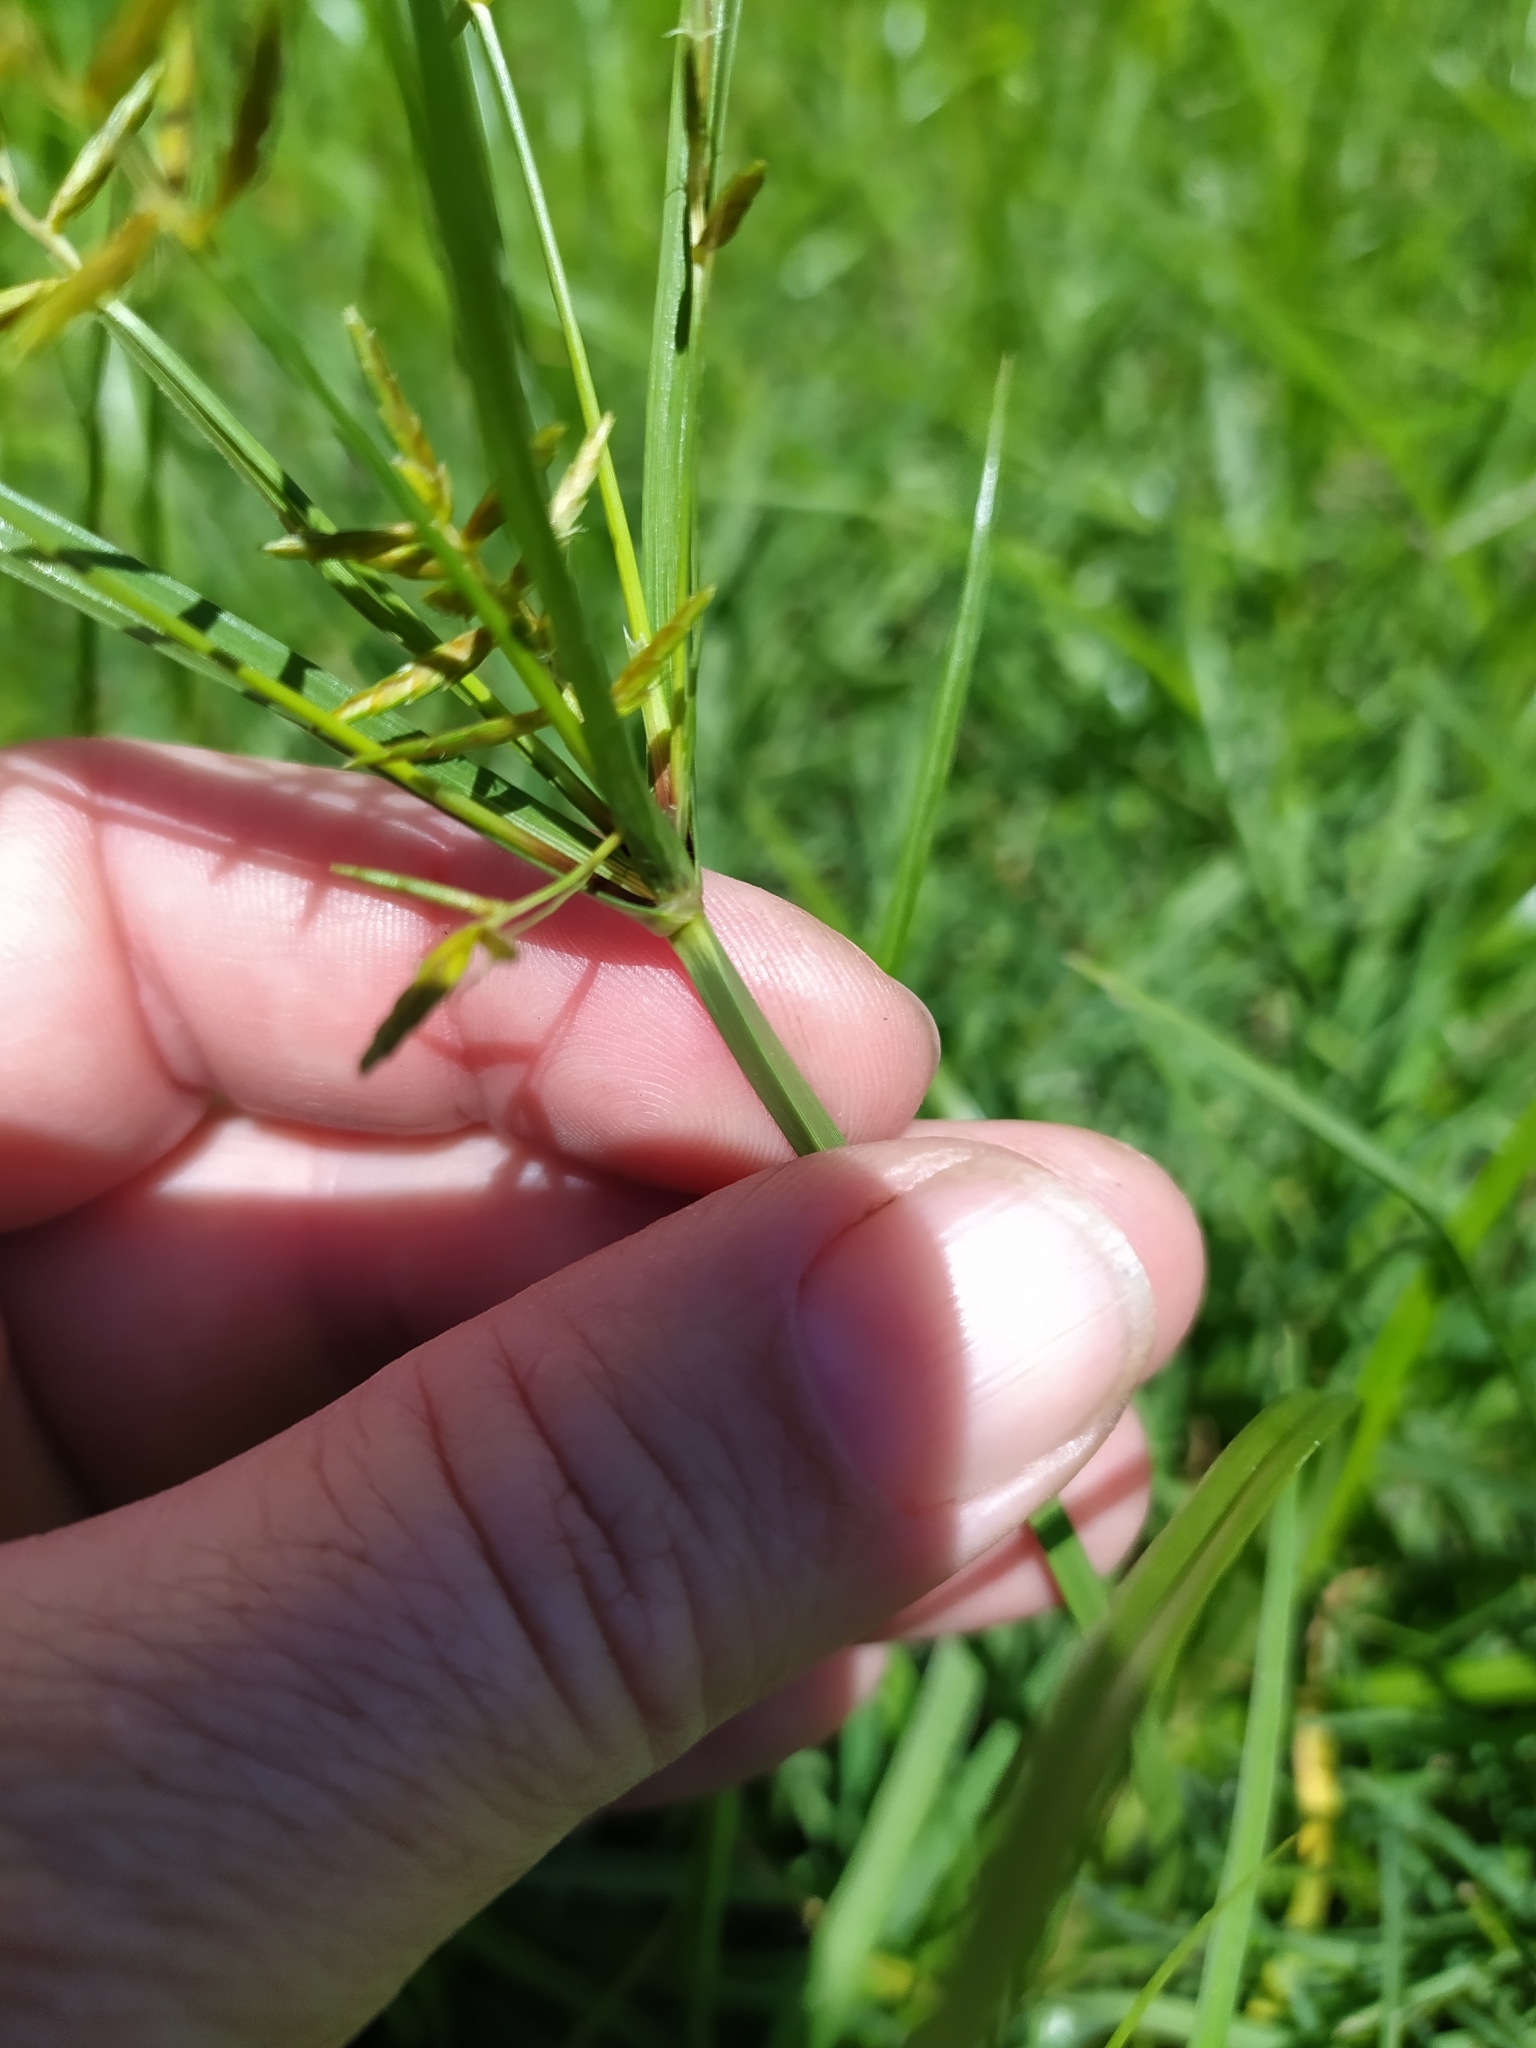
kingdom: Plantae
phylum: Tracheophyta
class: Liliopsida
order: Poales
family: Cyperaceae
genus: Cyperus
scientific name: Cyperus esculentus
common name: Yellow nutsedge
